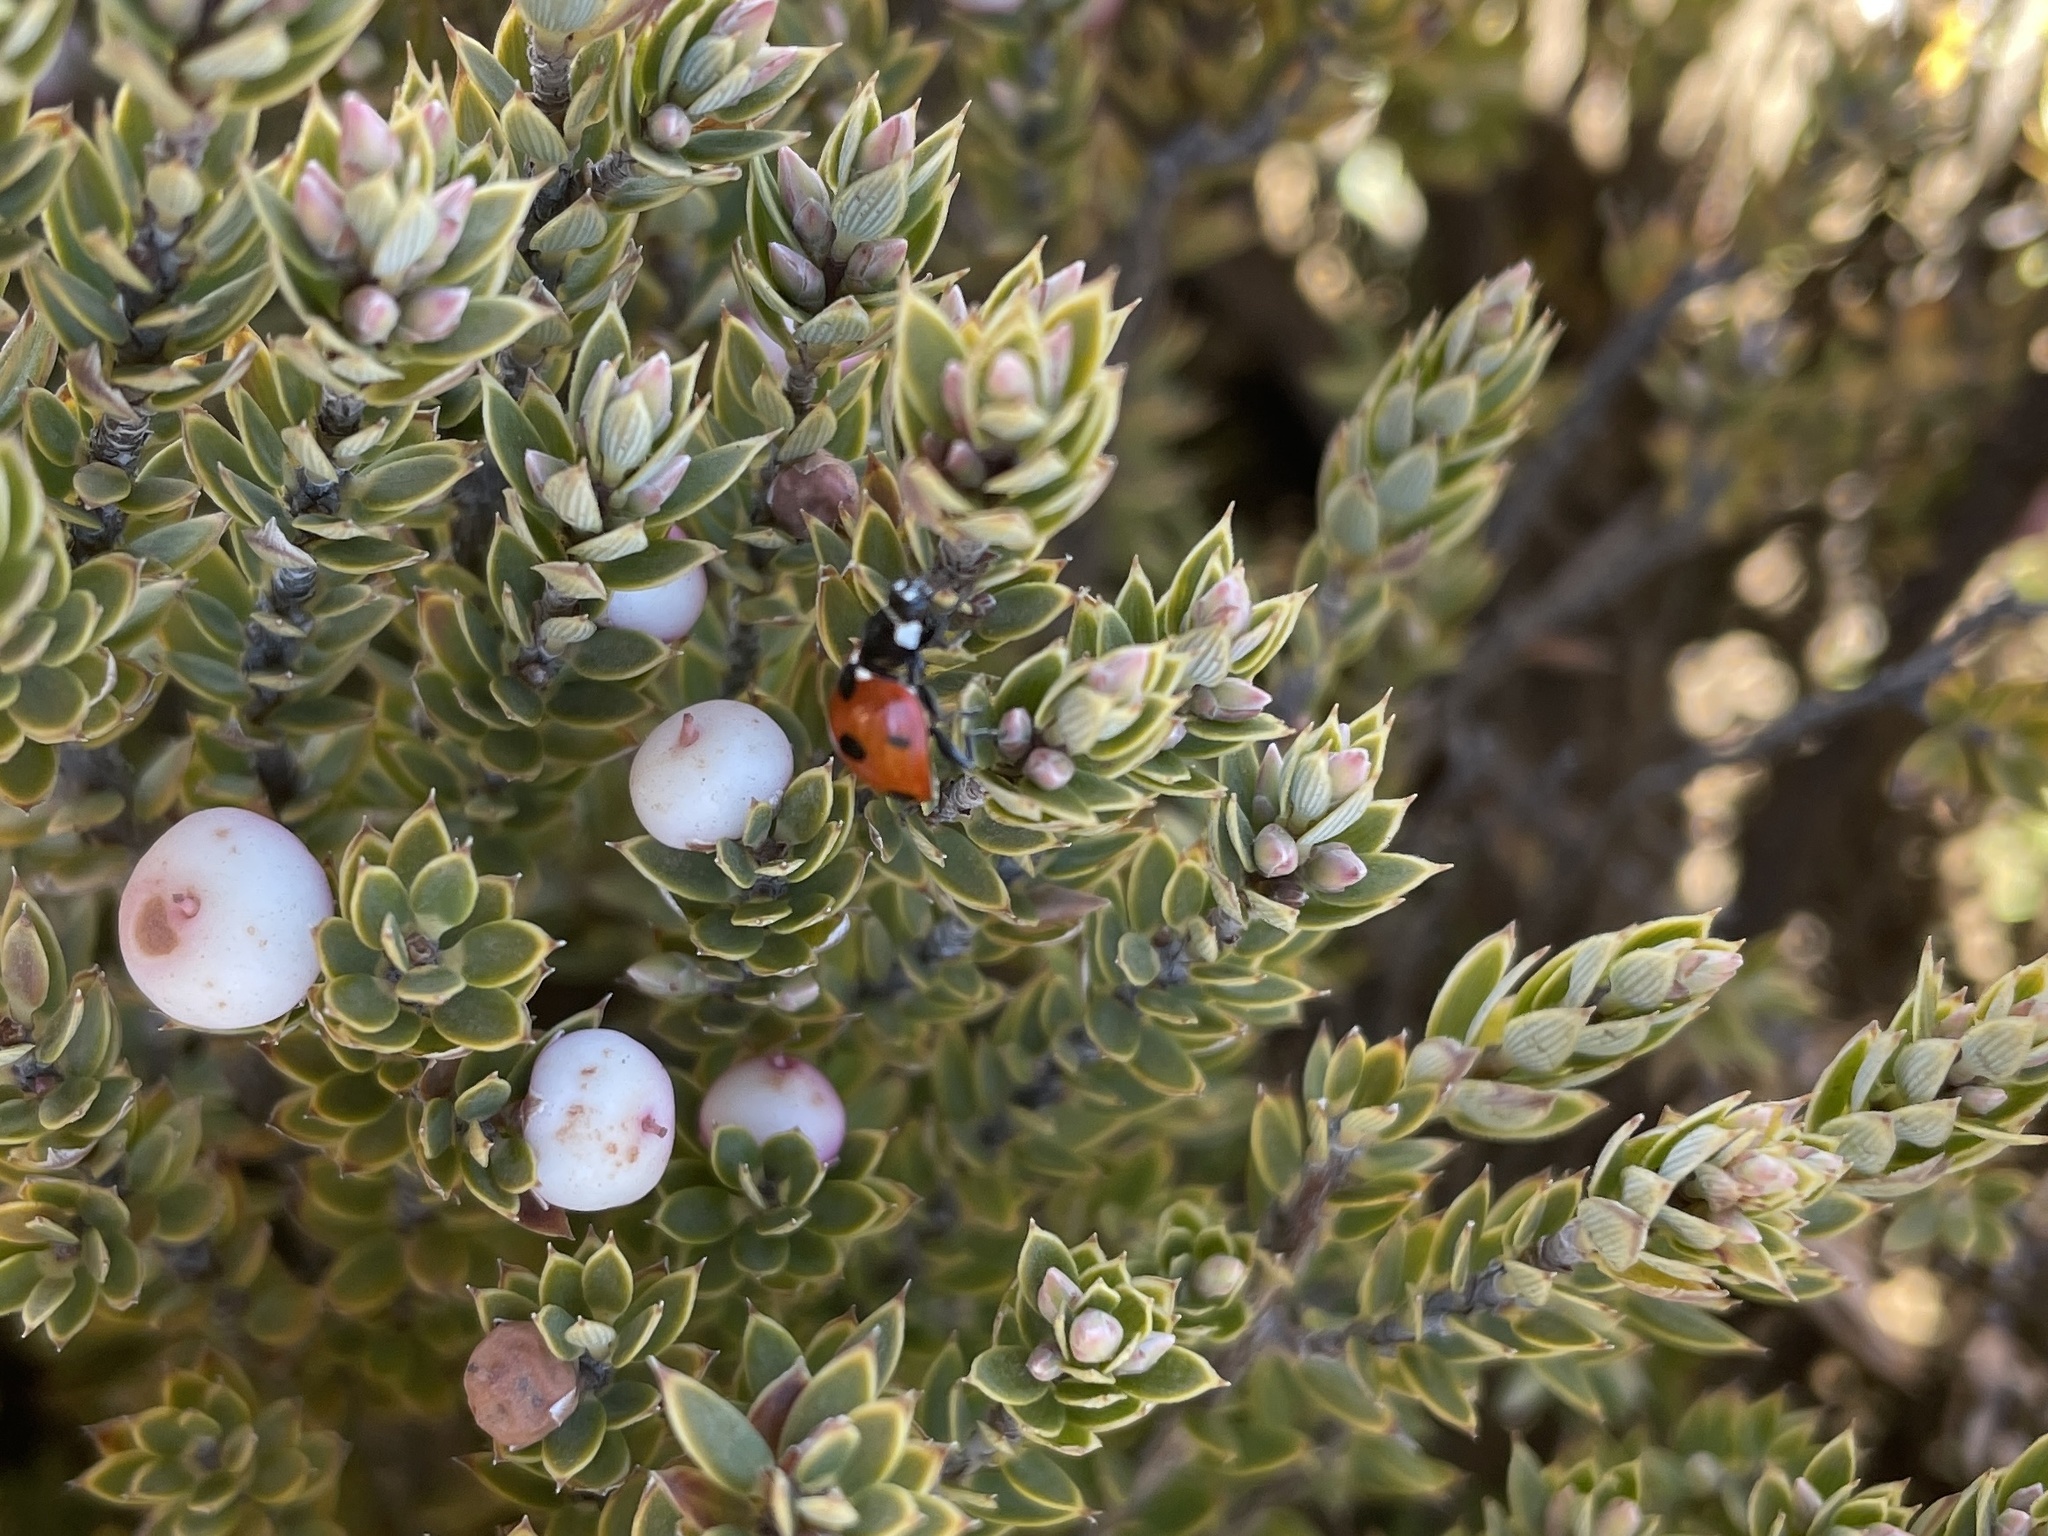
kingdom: Plantae
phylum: Tracheophyta
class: Magnoliopsida
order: Ericales
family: Ericaceae
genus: Leptecophylla
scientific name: Leptecophylla tameiameiae
